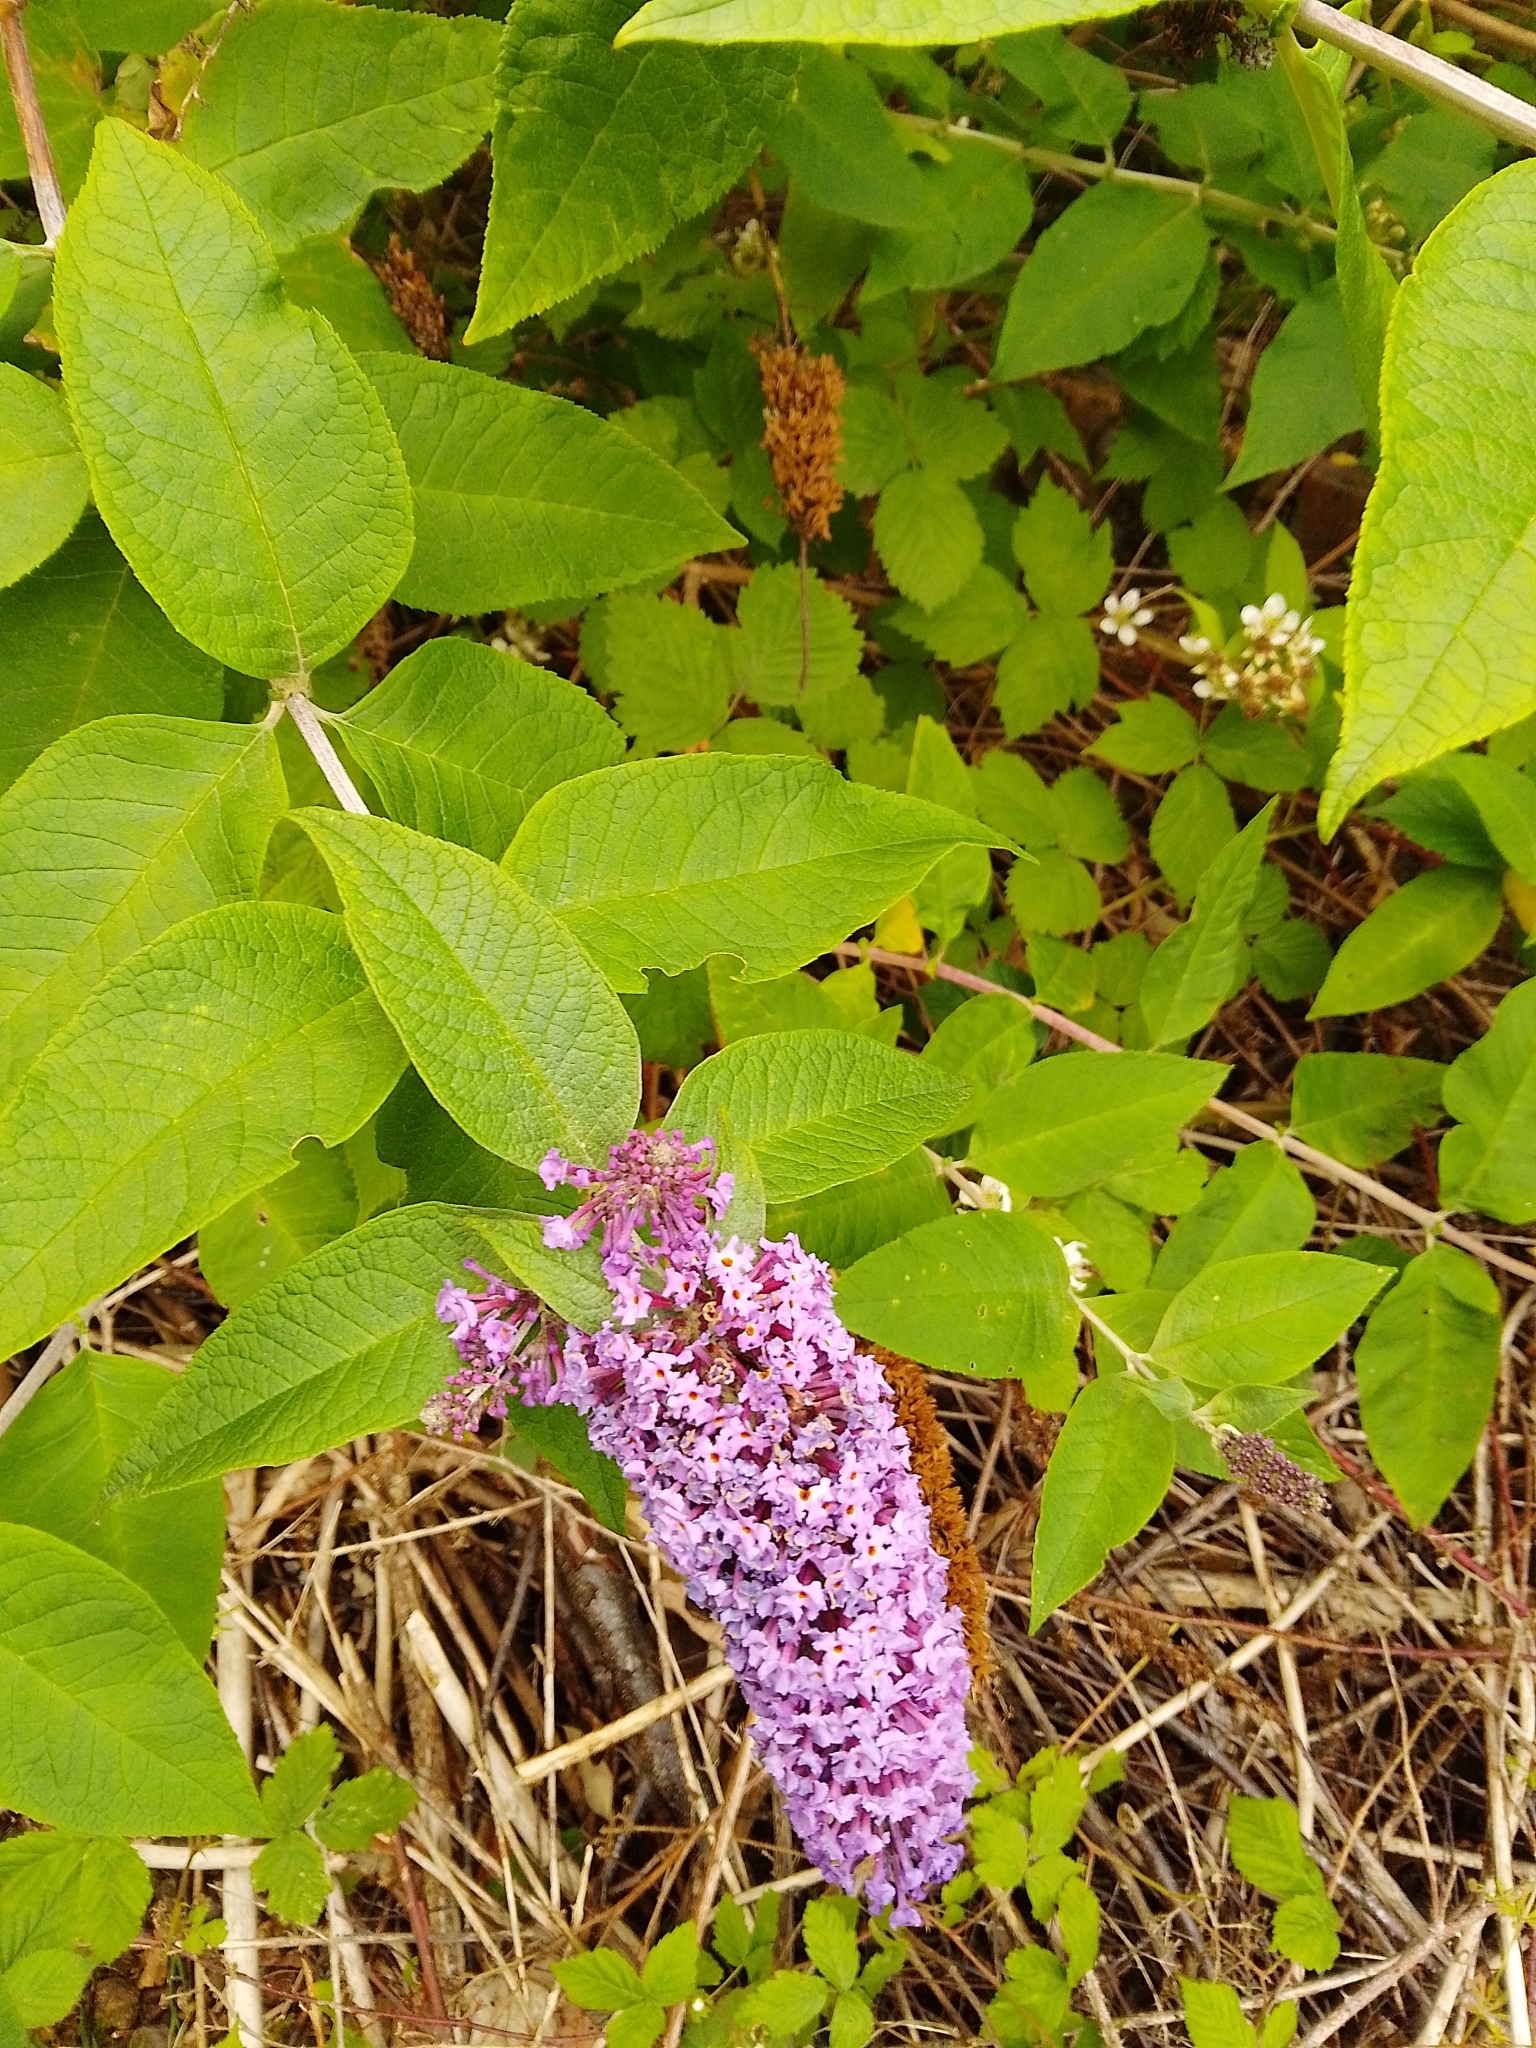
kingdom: Plantae
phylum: Tracheophyta
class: Magnoliopsida
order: Lamiales
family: Scrophulariaceae
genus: Buddleja
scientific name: Buddleja davidii
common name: Butterfly-bush
